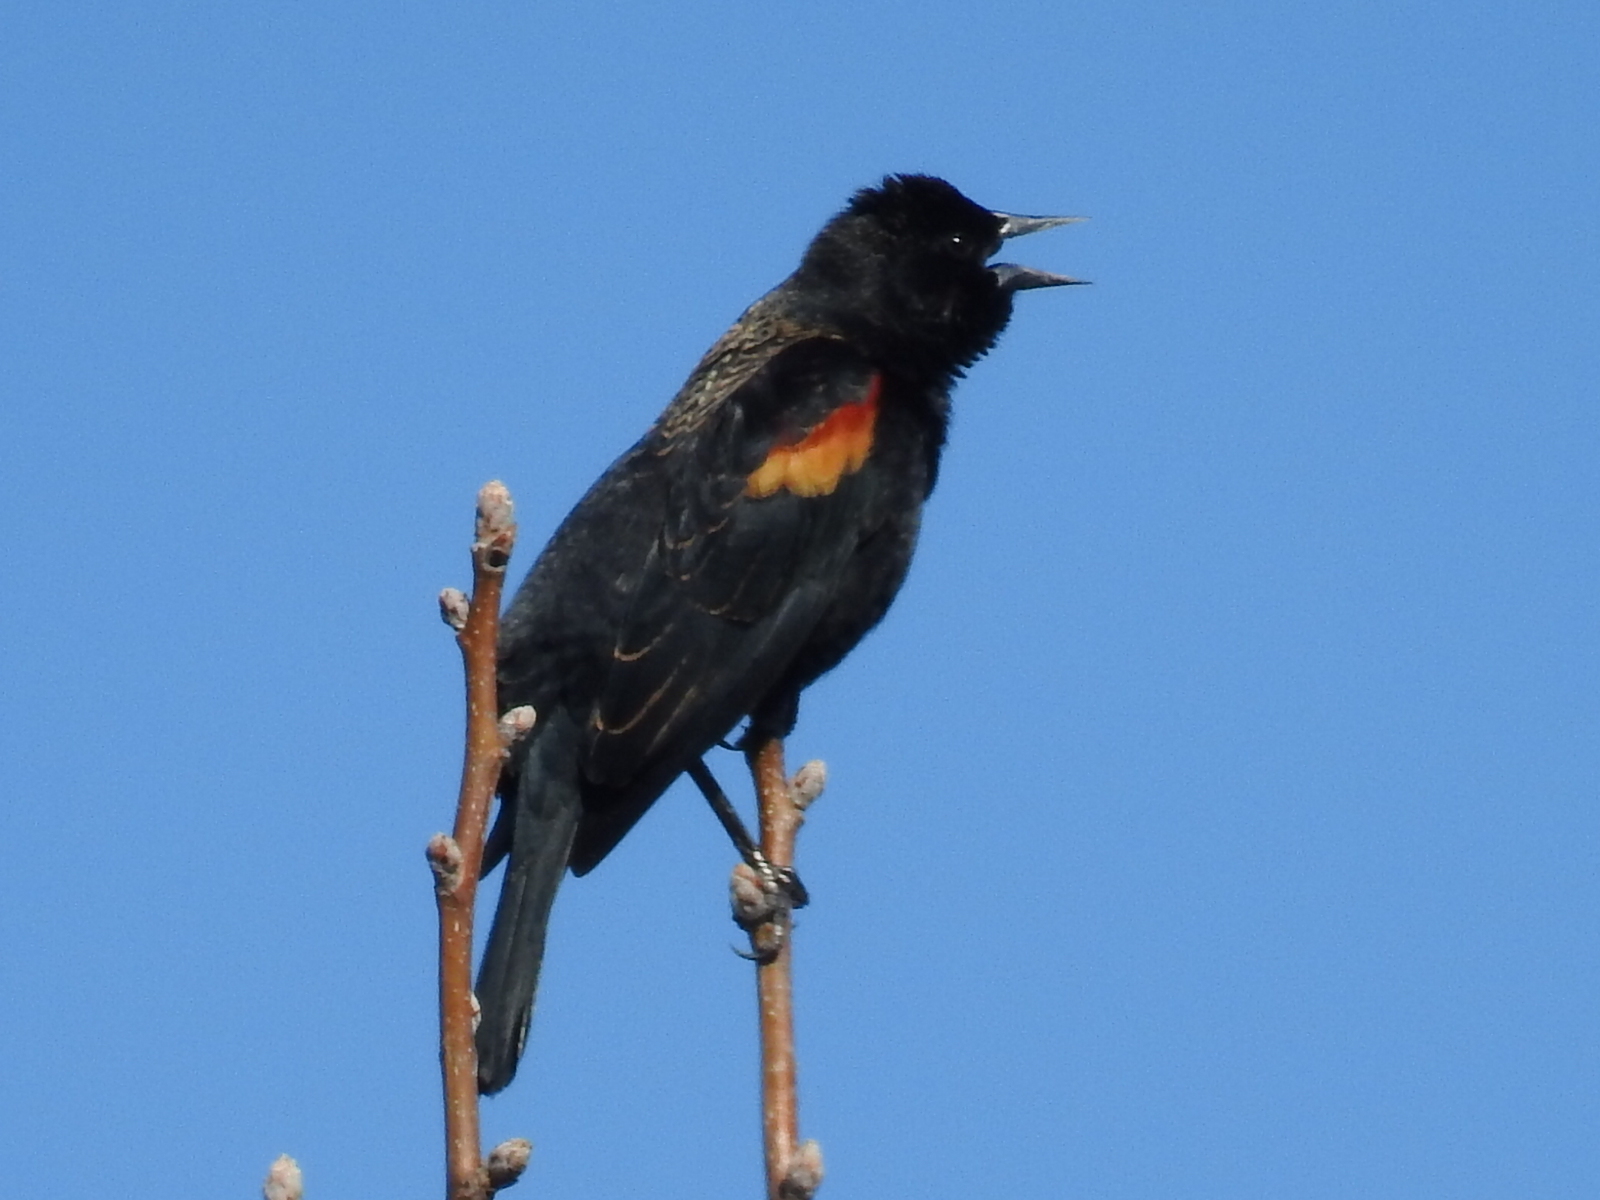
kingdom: Animalia
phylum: Chordata
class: Aves
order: Passeriformes
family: Icteridae
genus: Agelaius
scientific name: Agelaius phoeniceus
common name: Red-winged blackbird
